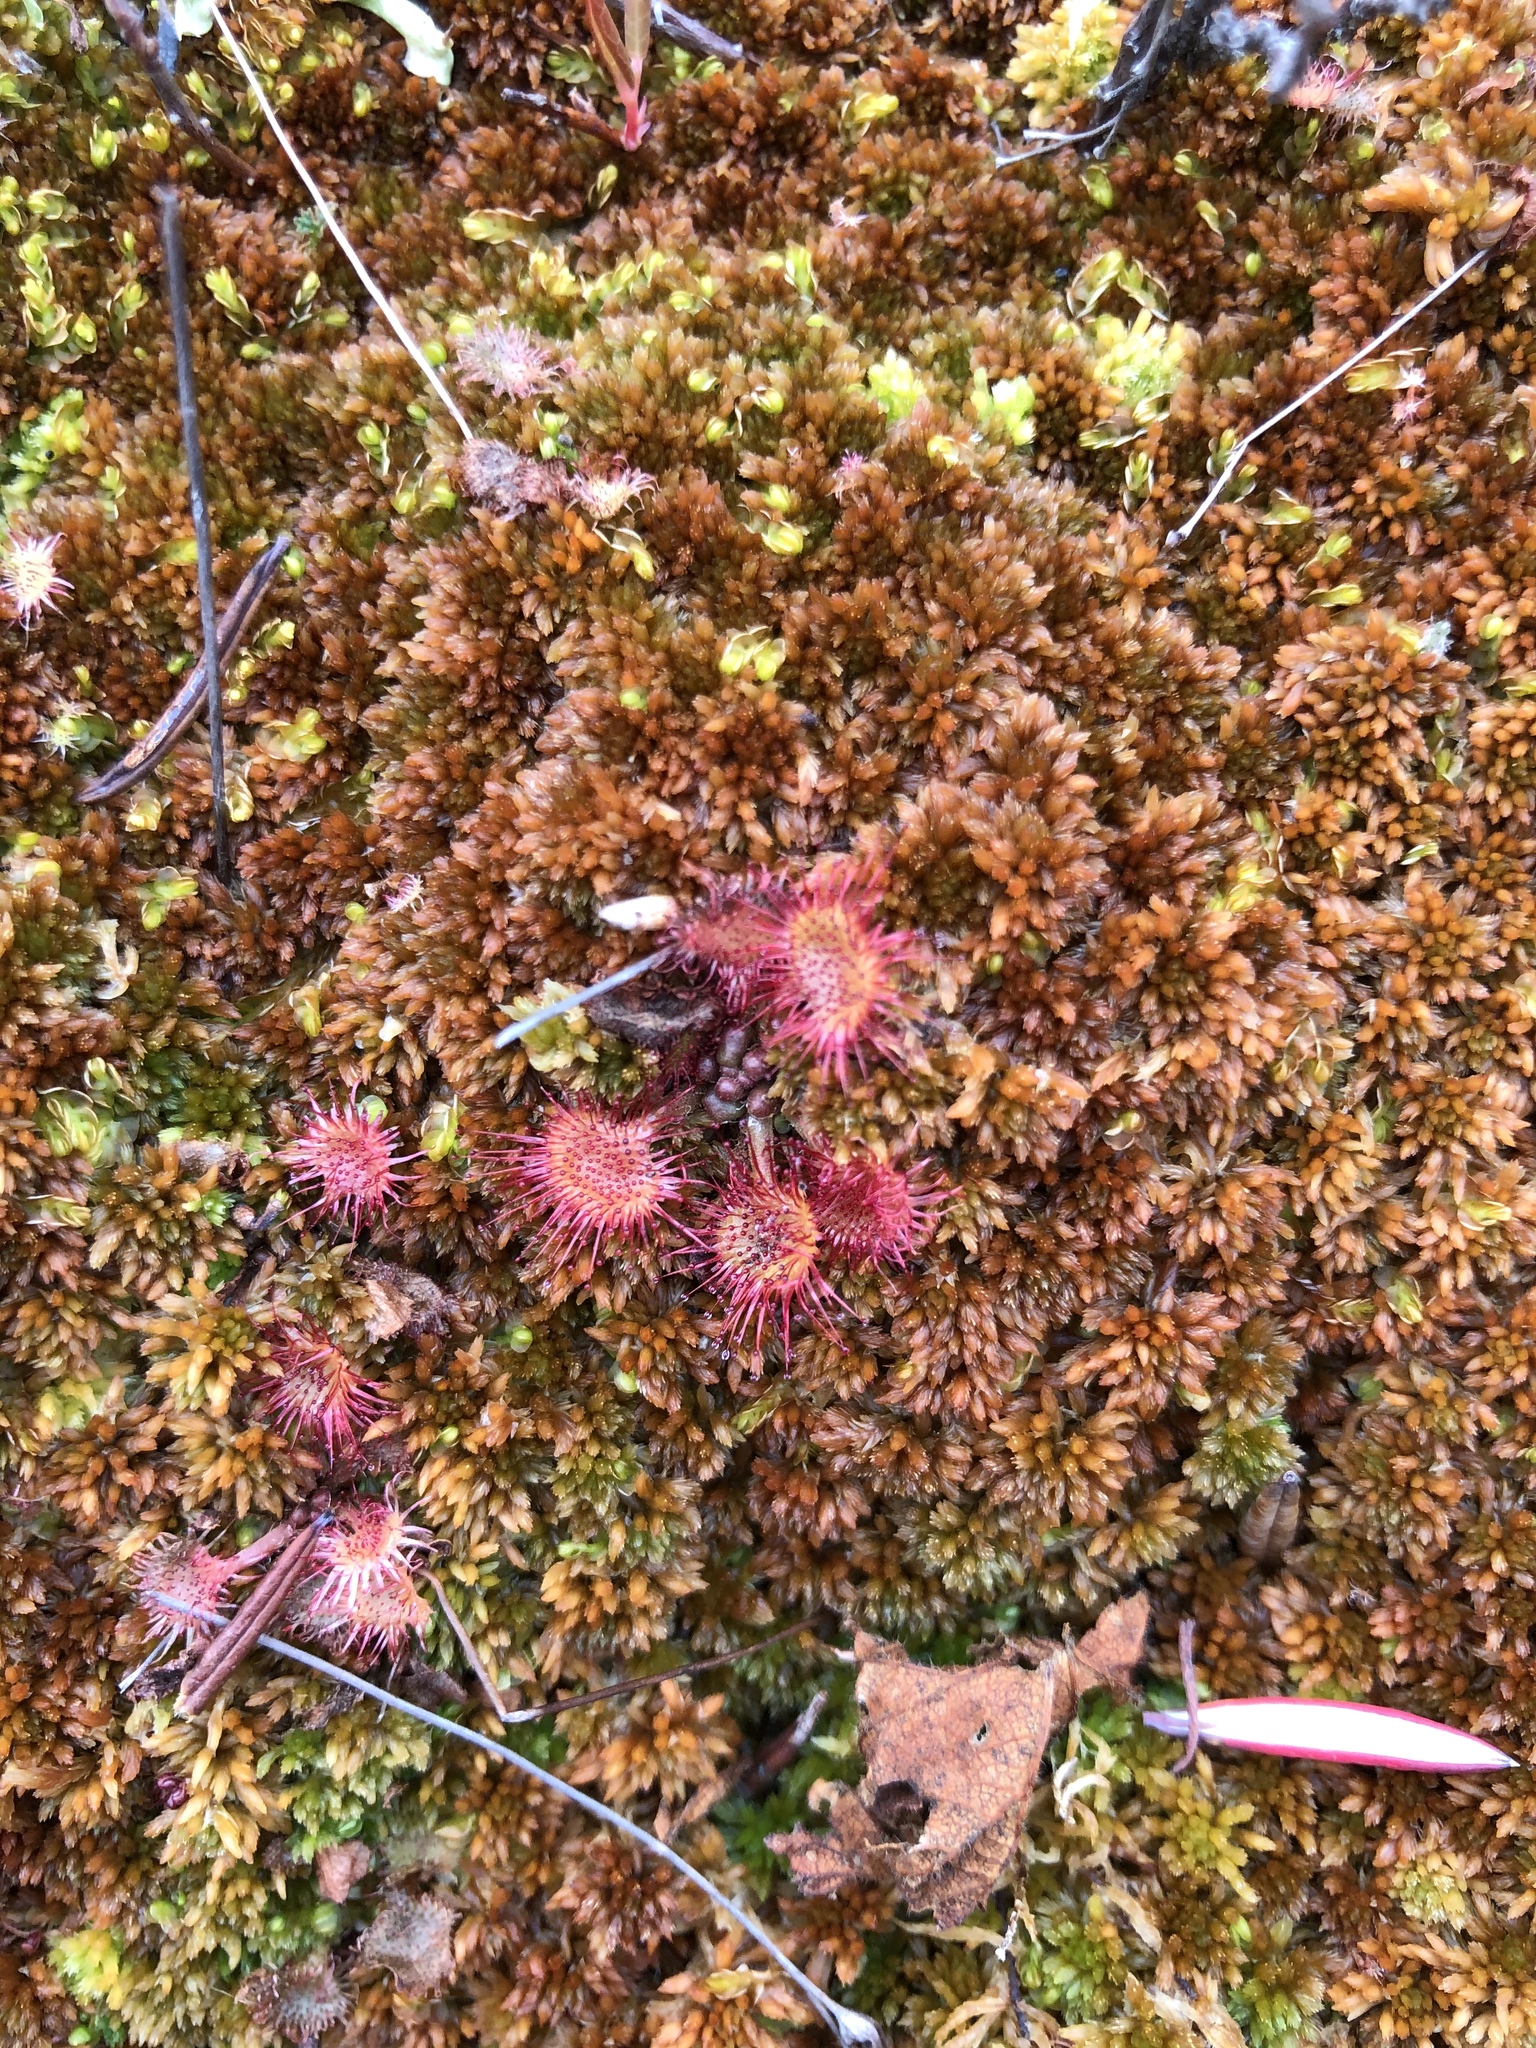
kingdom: Plantae
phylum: Tracheophyta
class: Magnoliopsida
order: Caryophyllales
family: Droseraceae
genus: Drosera
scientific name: Drosera rotundifolia
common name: Round-leaved sundew
